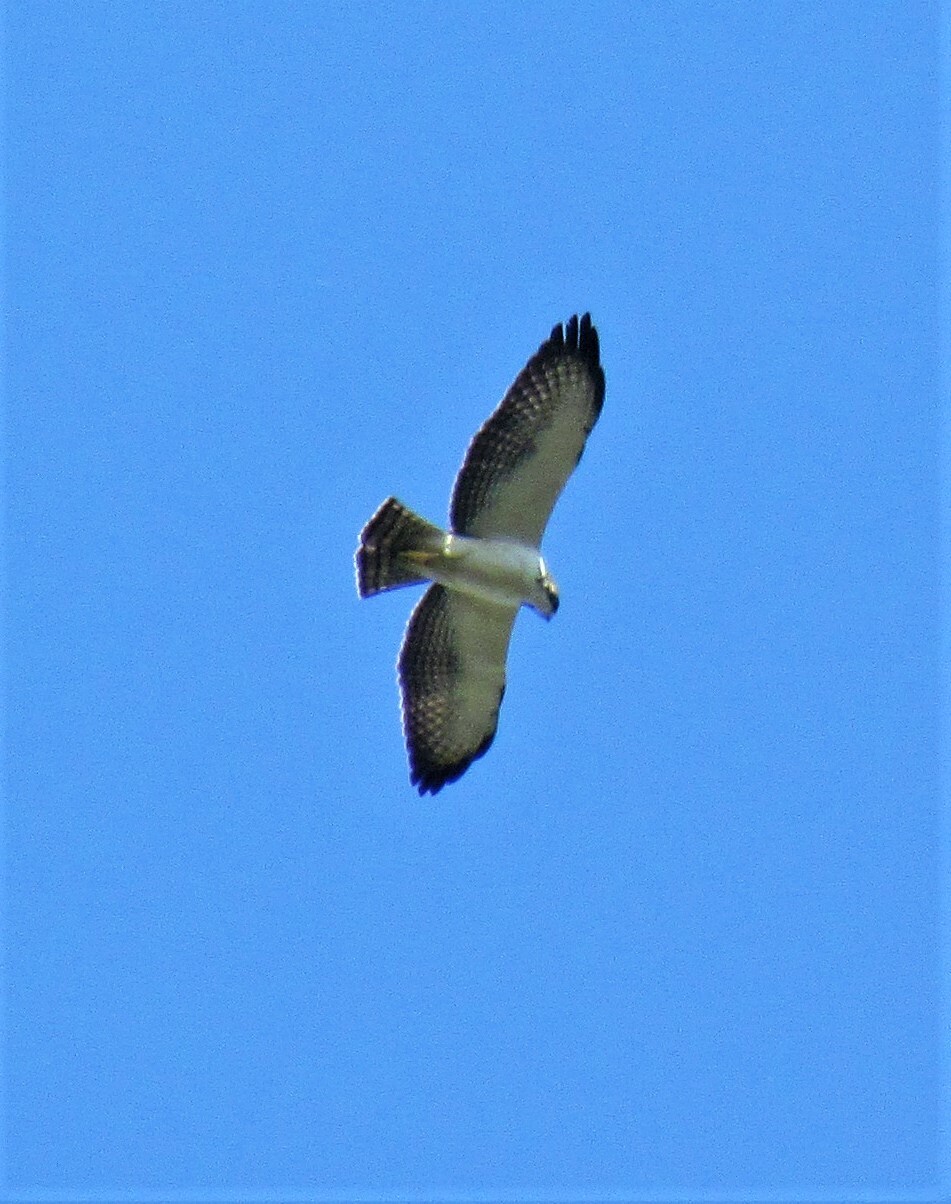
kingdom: Animalia
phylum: Chordata
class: Aves
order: Accipitriformes
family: Accipitridae
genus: Buteo
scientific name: Buteo brachyurus
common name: Short-tailed hawk
